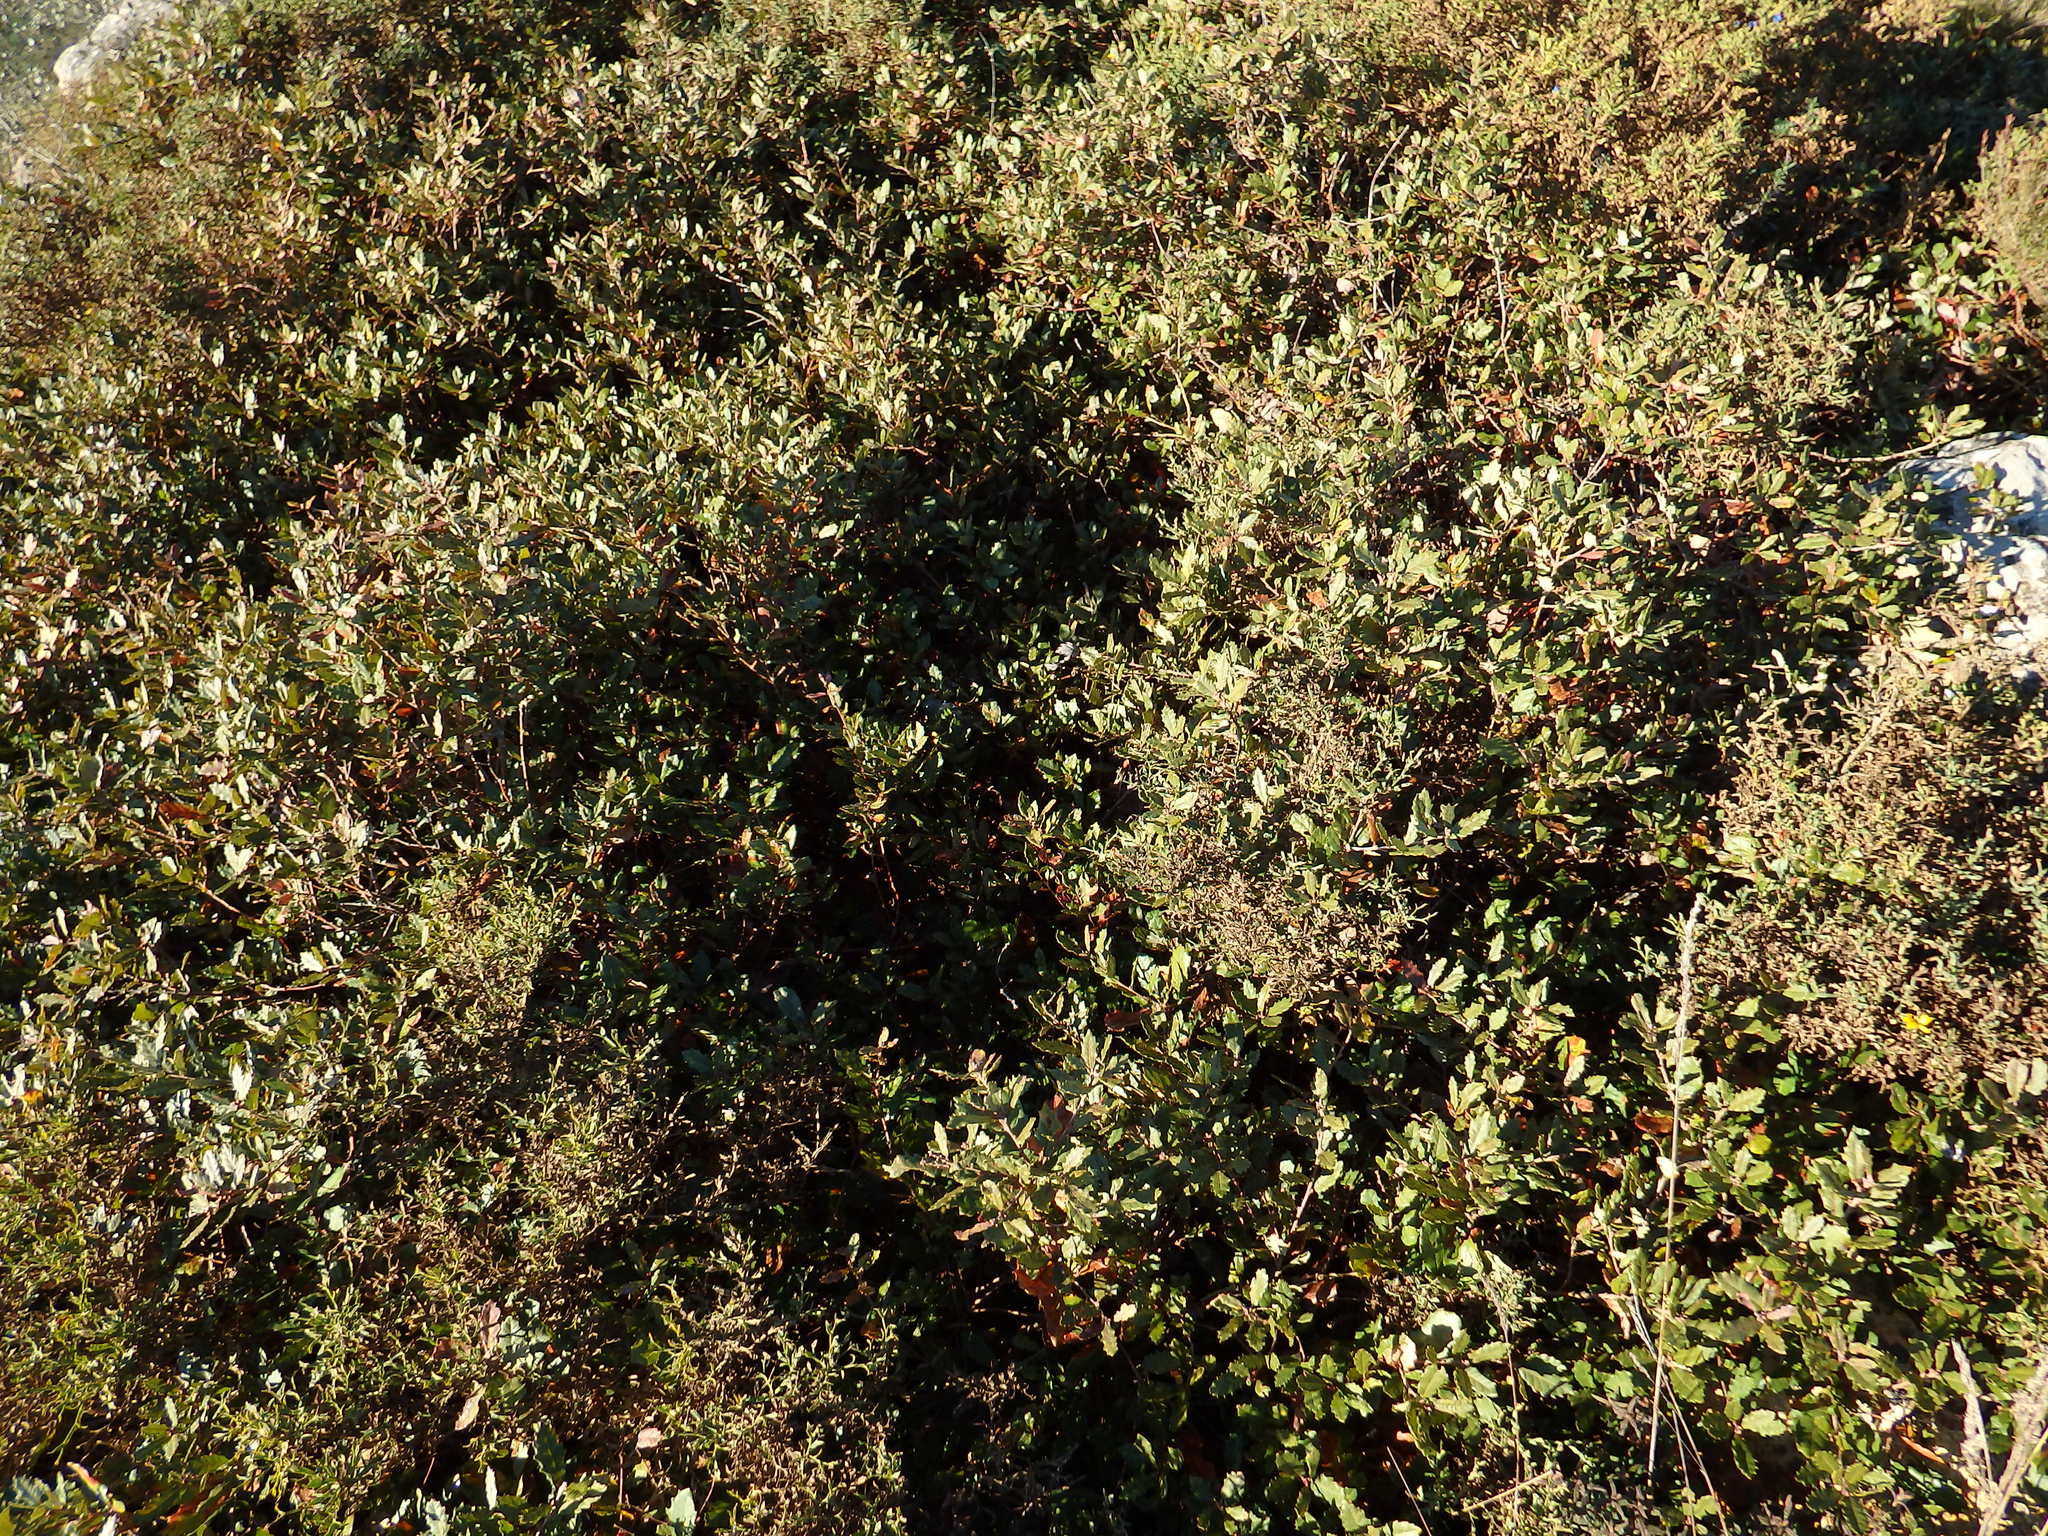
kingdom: Plantae
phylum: Tracheophyta
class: Magnoliopsida
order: Fagales
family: Fagaceae
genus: Quercus
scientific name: Quercus lusitanica
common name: Scrub gall oak
